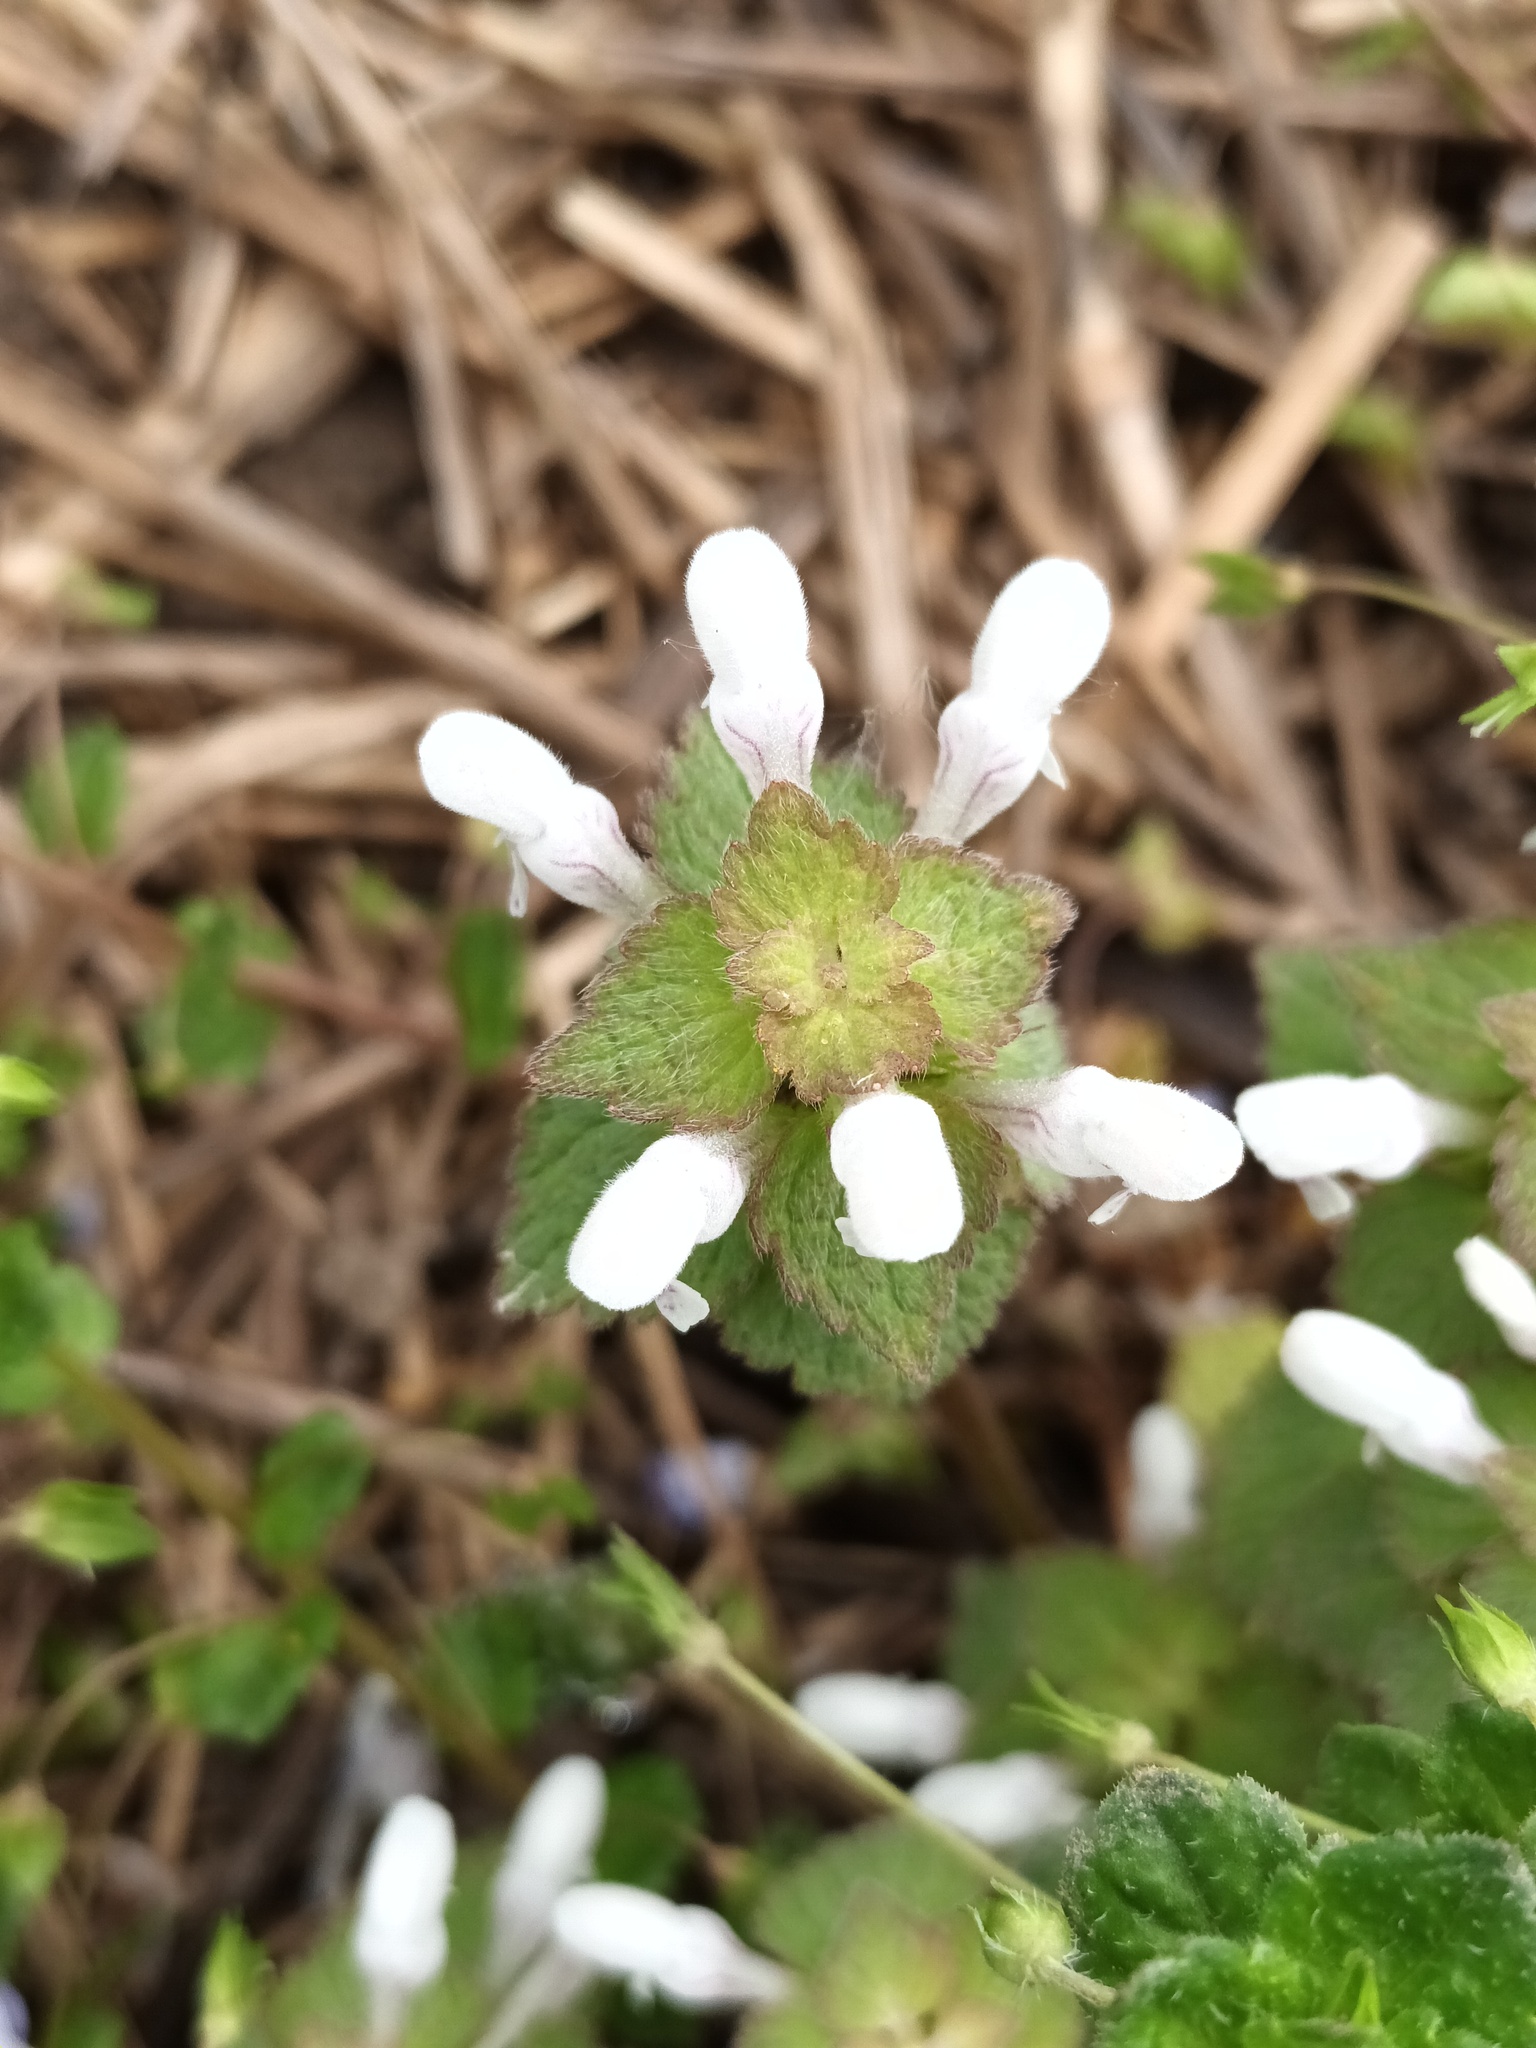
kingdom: Plantae
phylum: Tracheophyta
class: Magnoliopsida
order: Lamiales
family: Lamiaceae
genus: Lamium
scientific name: Lamium purpureum
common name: Red dead-nettle
